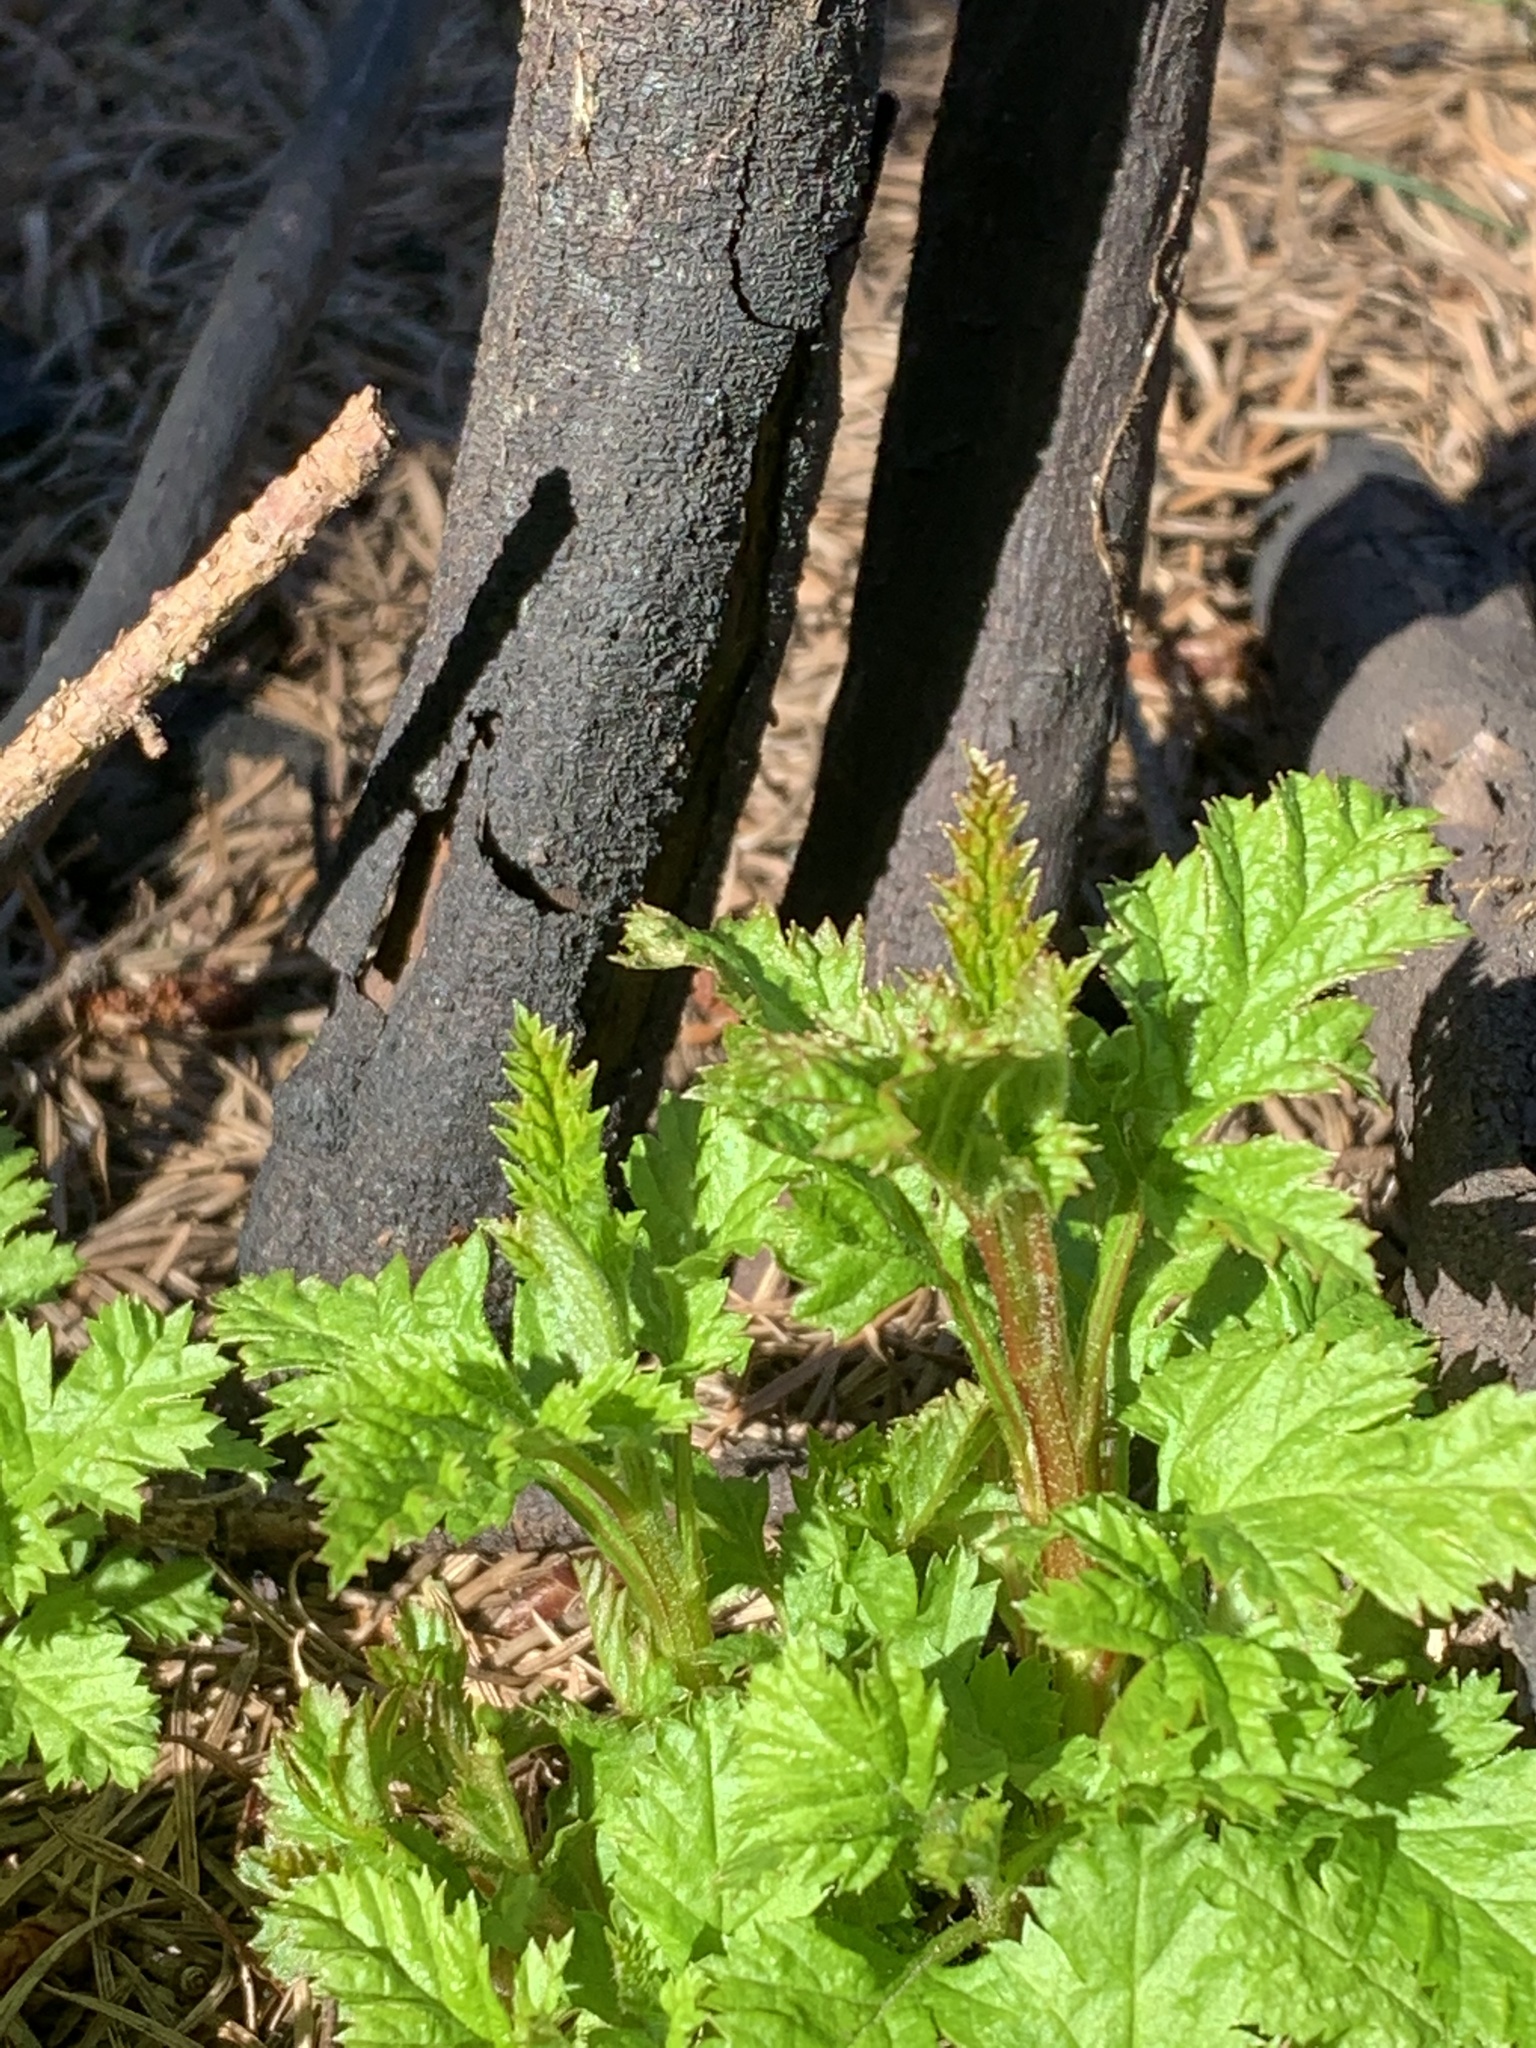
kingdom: Plantae
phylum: Tracheophyta
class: Magnoliopsida
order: Rosales
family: Rosaceae
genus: Holodiscus
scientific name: Holodiscus discolor
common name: Oceanspray
